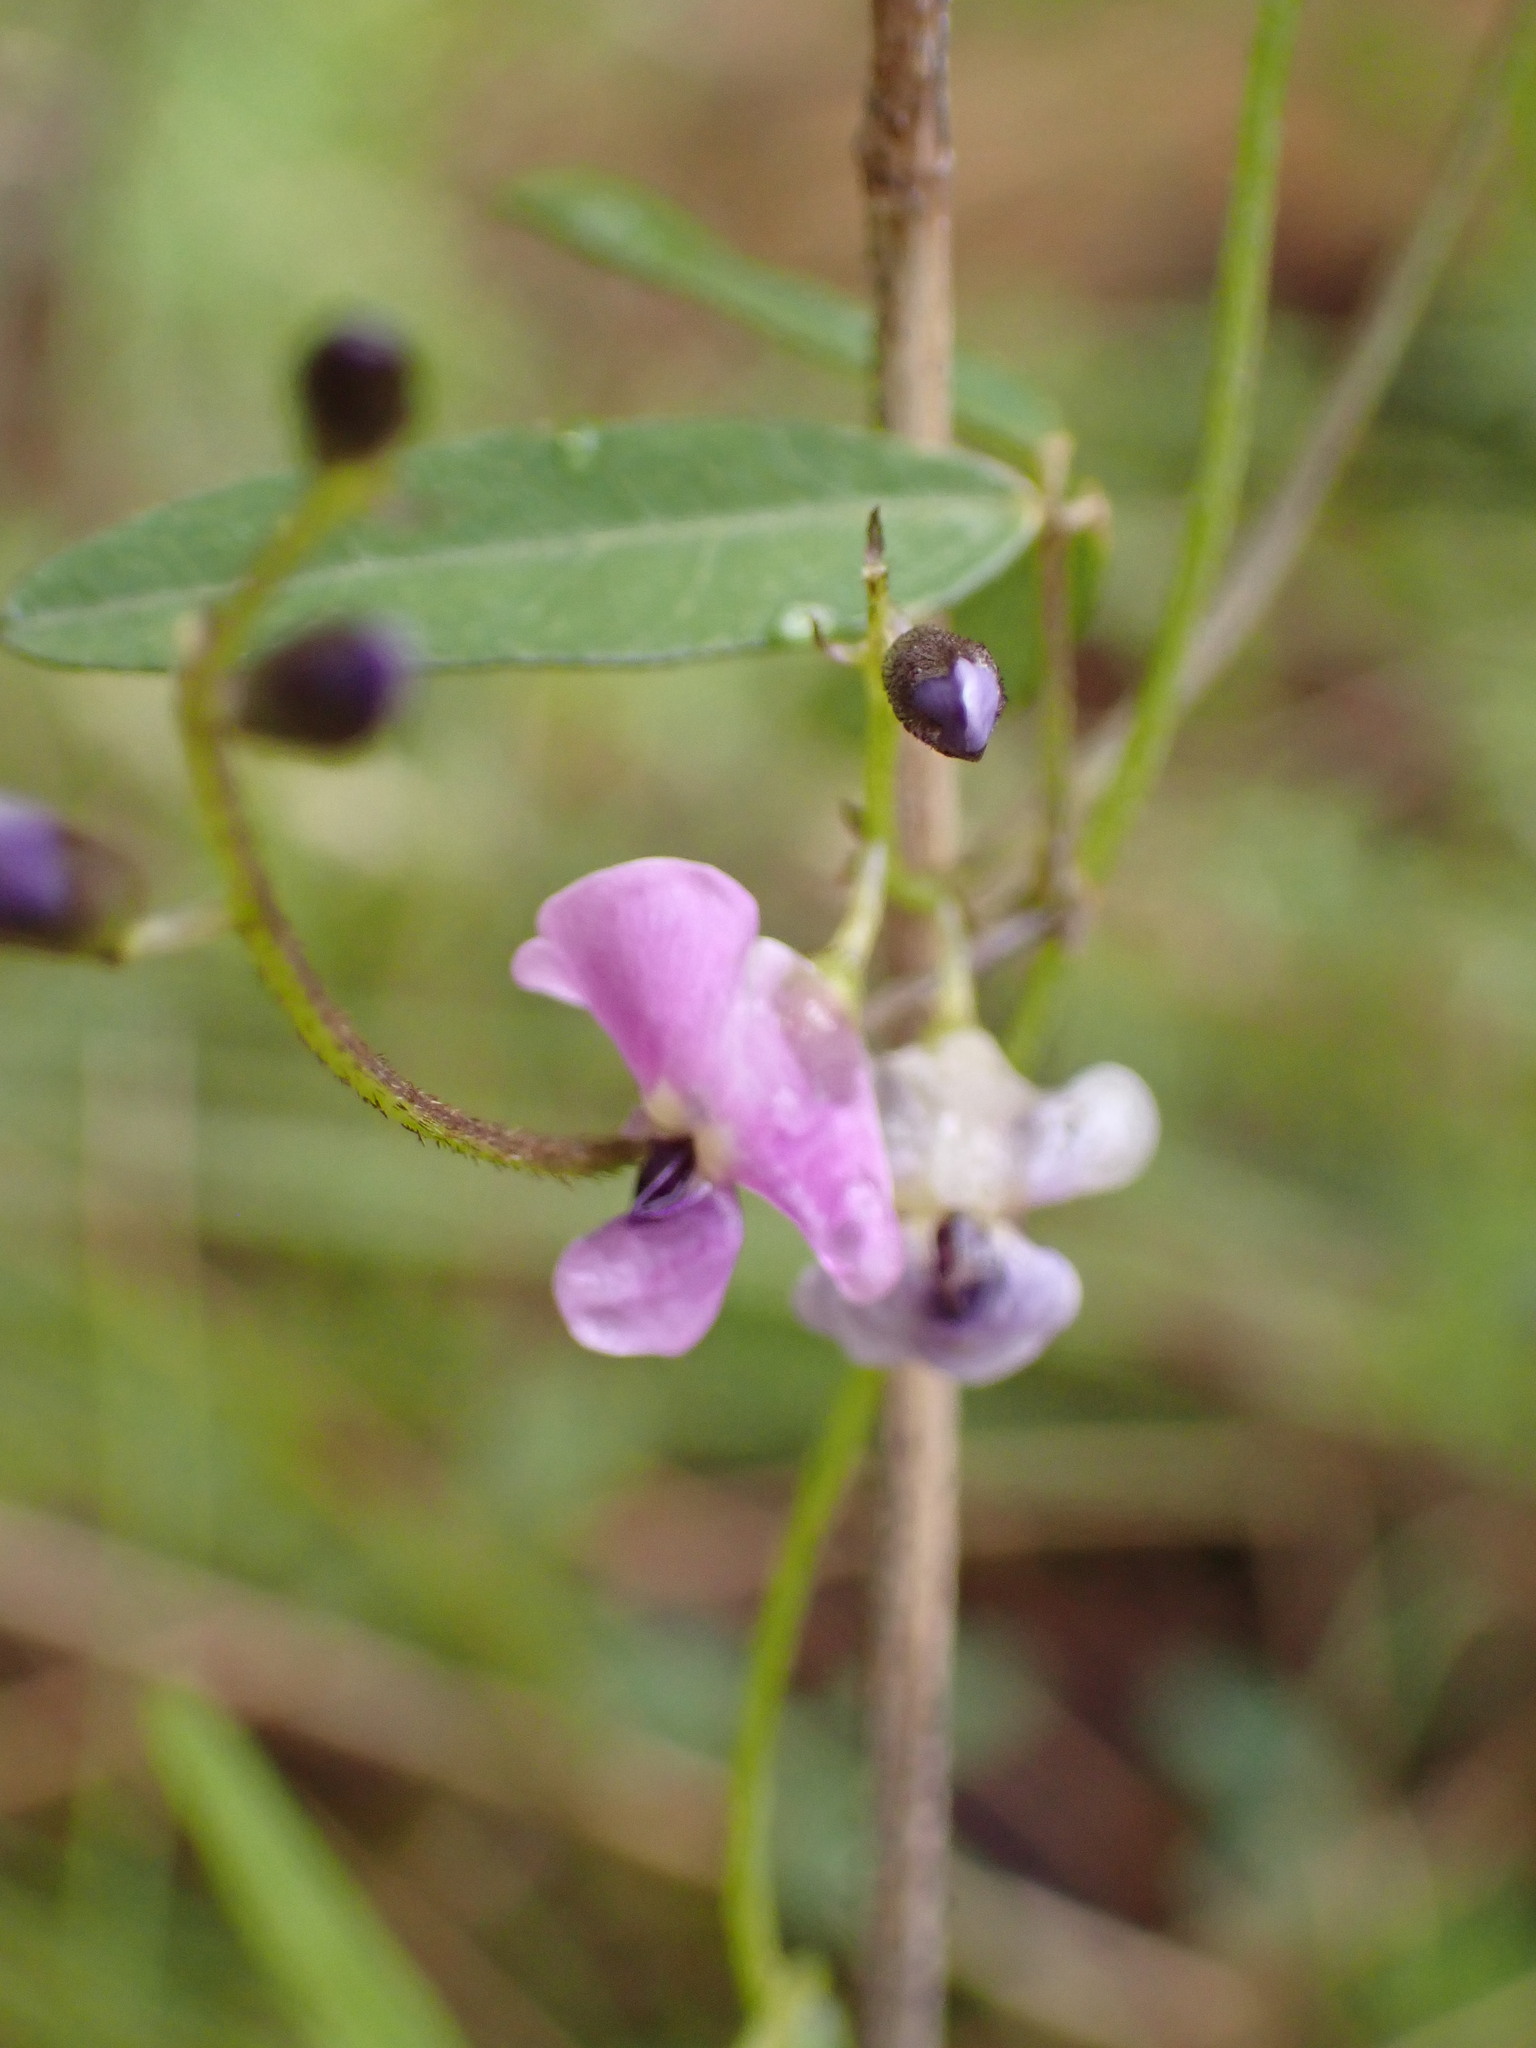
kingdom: Plantae
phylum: Tracheophyta
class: Magnoliopsida
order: Fabales
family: Fabaceae
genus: Glycine
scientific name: Glycine microphylla
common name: Small-leaf glycine
